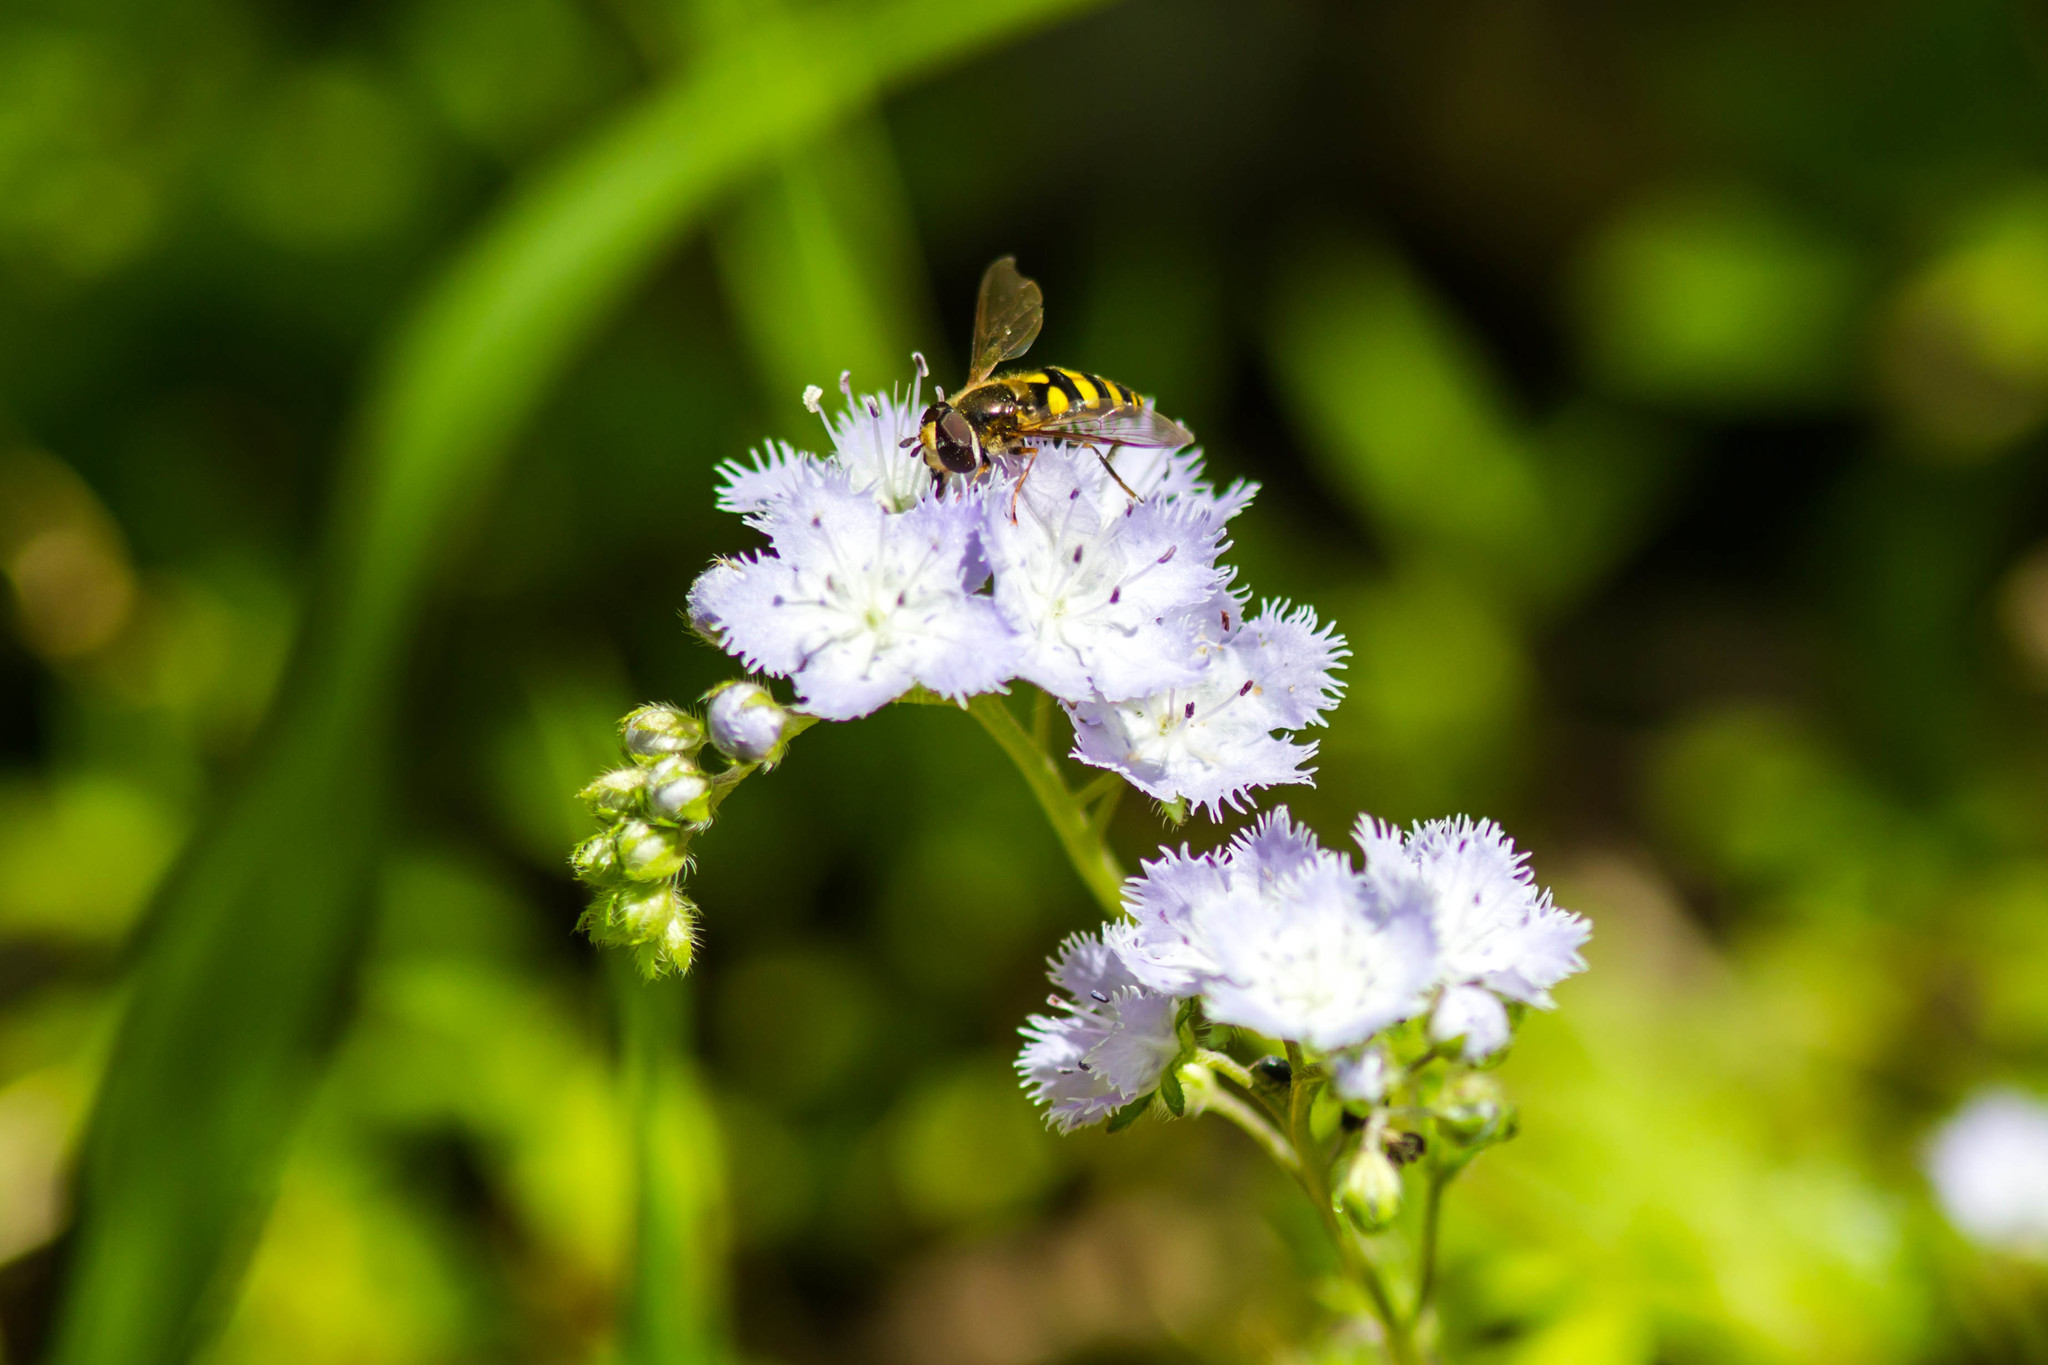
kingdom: Animalia
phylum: Arthropoda
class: Insecta
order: Diptera
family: Syrphidae
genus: Eupeodes
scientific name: Eupeodes
